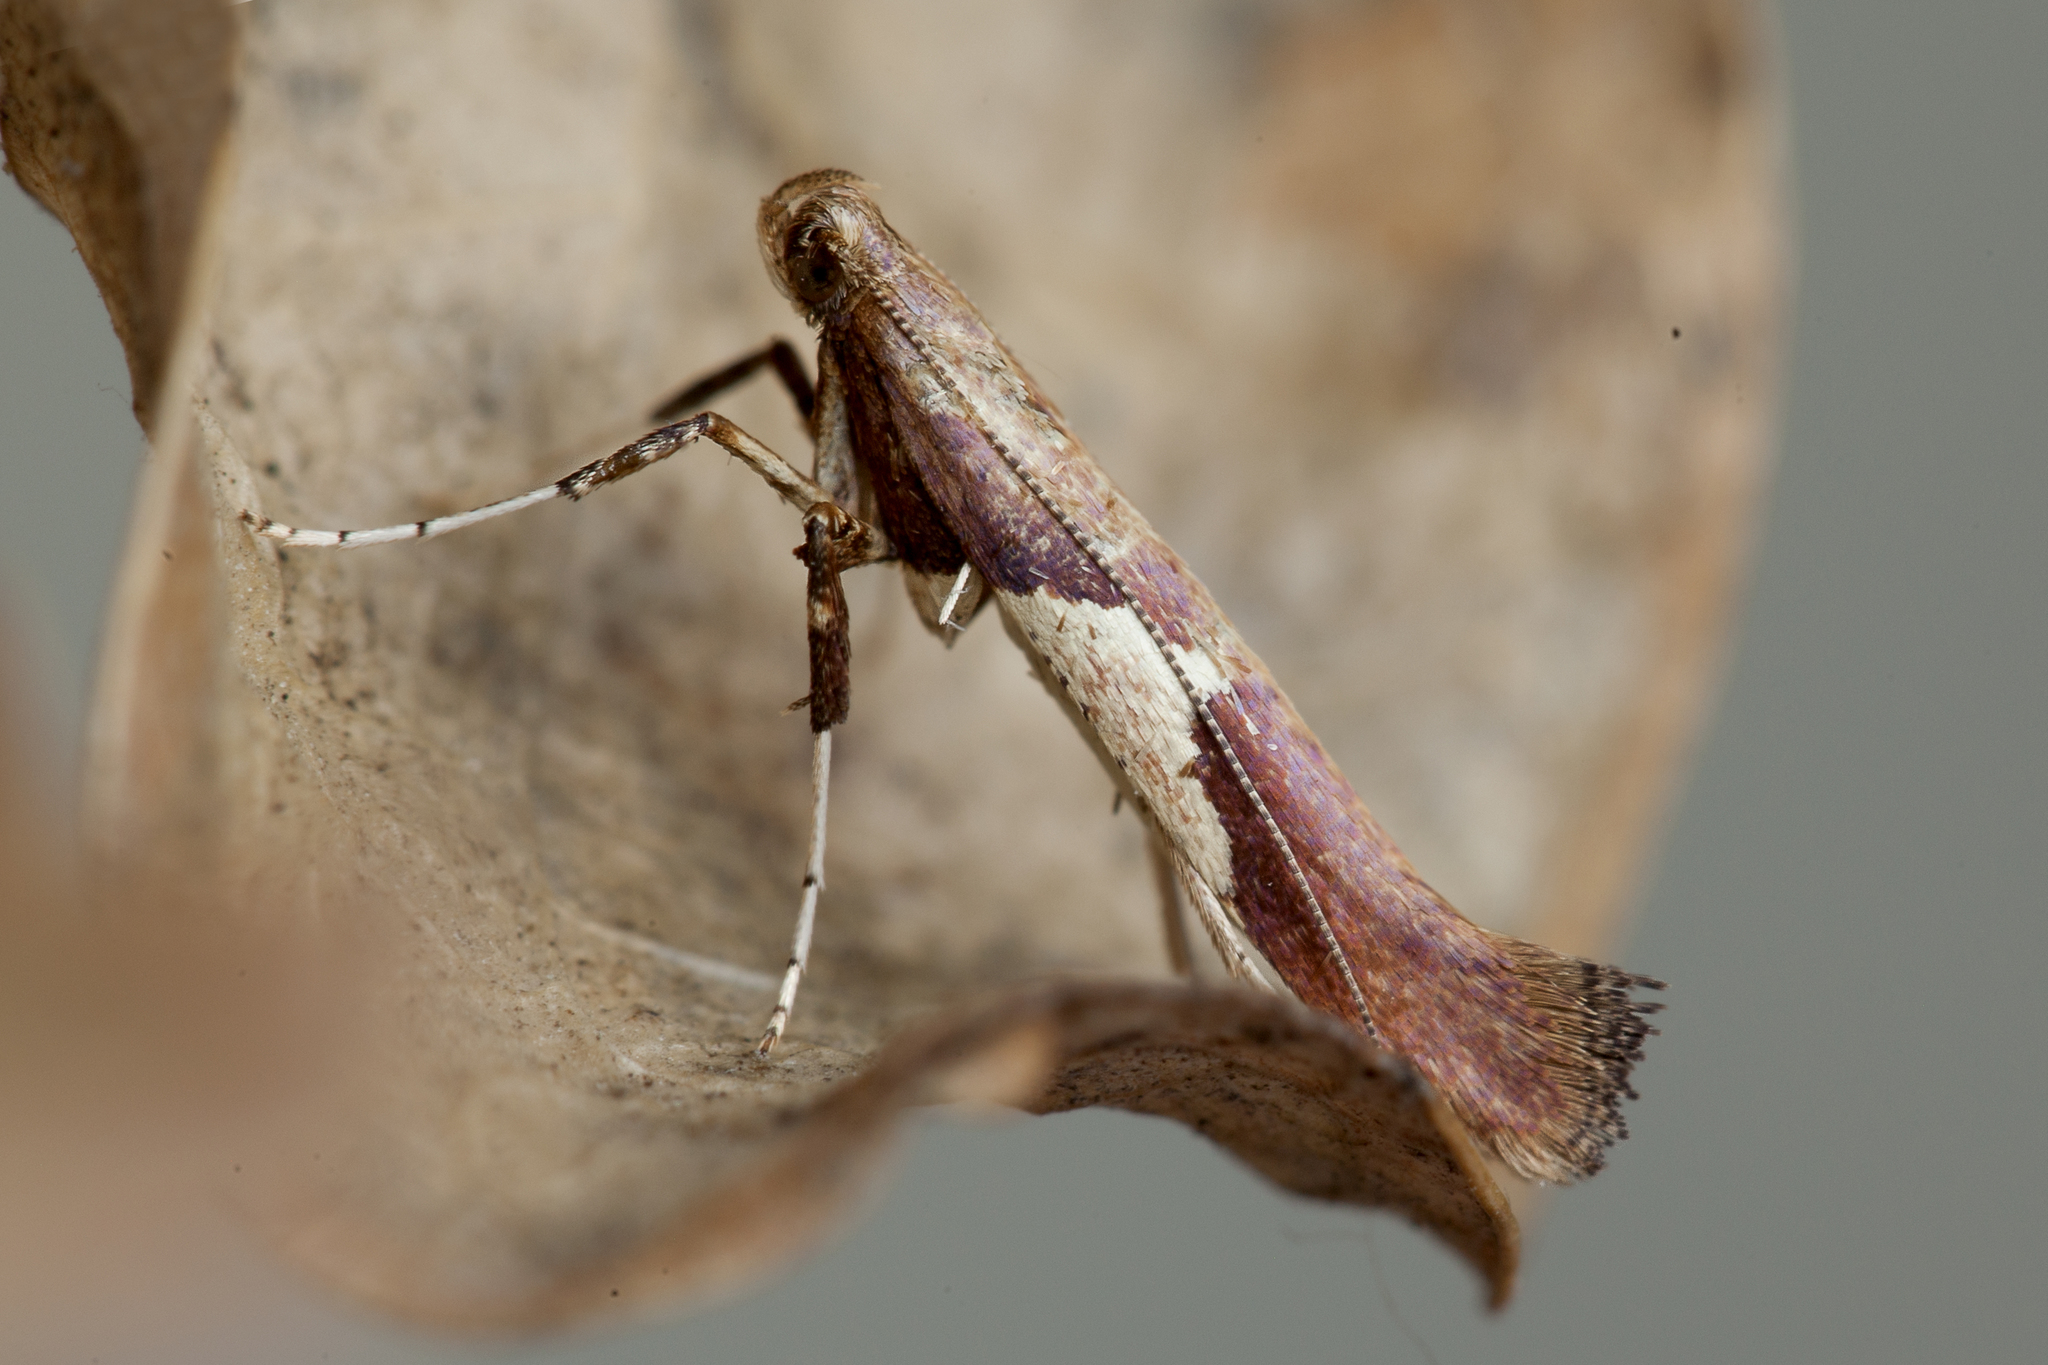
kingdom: Animalia
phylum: Arthropoda
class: Insecta
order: Lepidoptera
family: Gracillariidae
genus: Caloptilia
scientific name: Caloptilia stigmatella
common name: White-triangle slender
